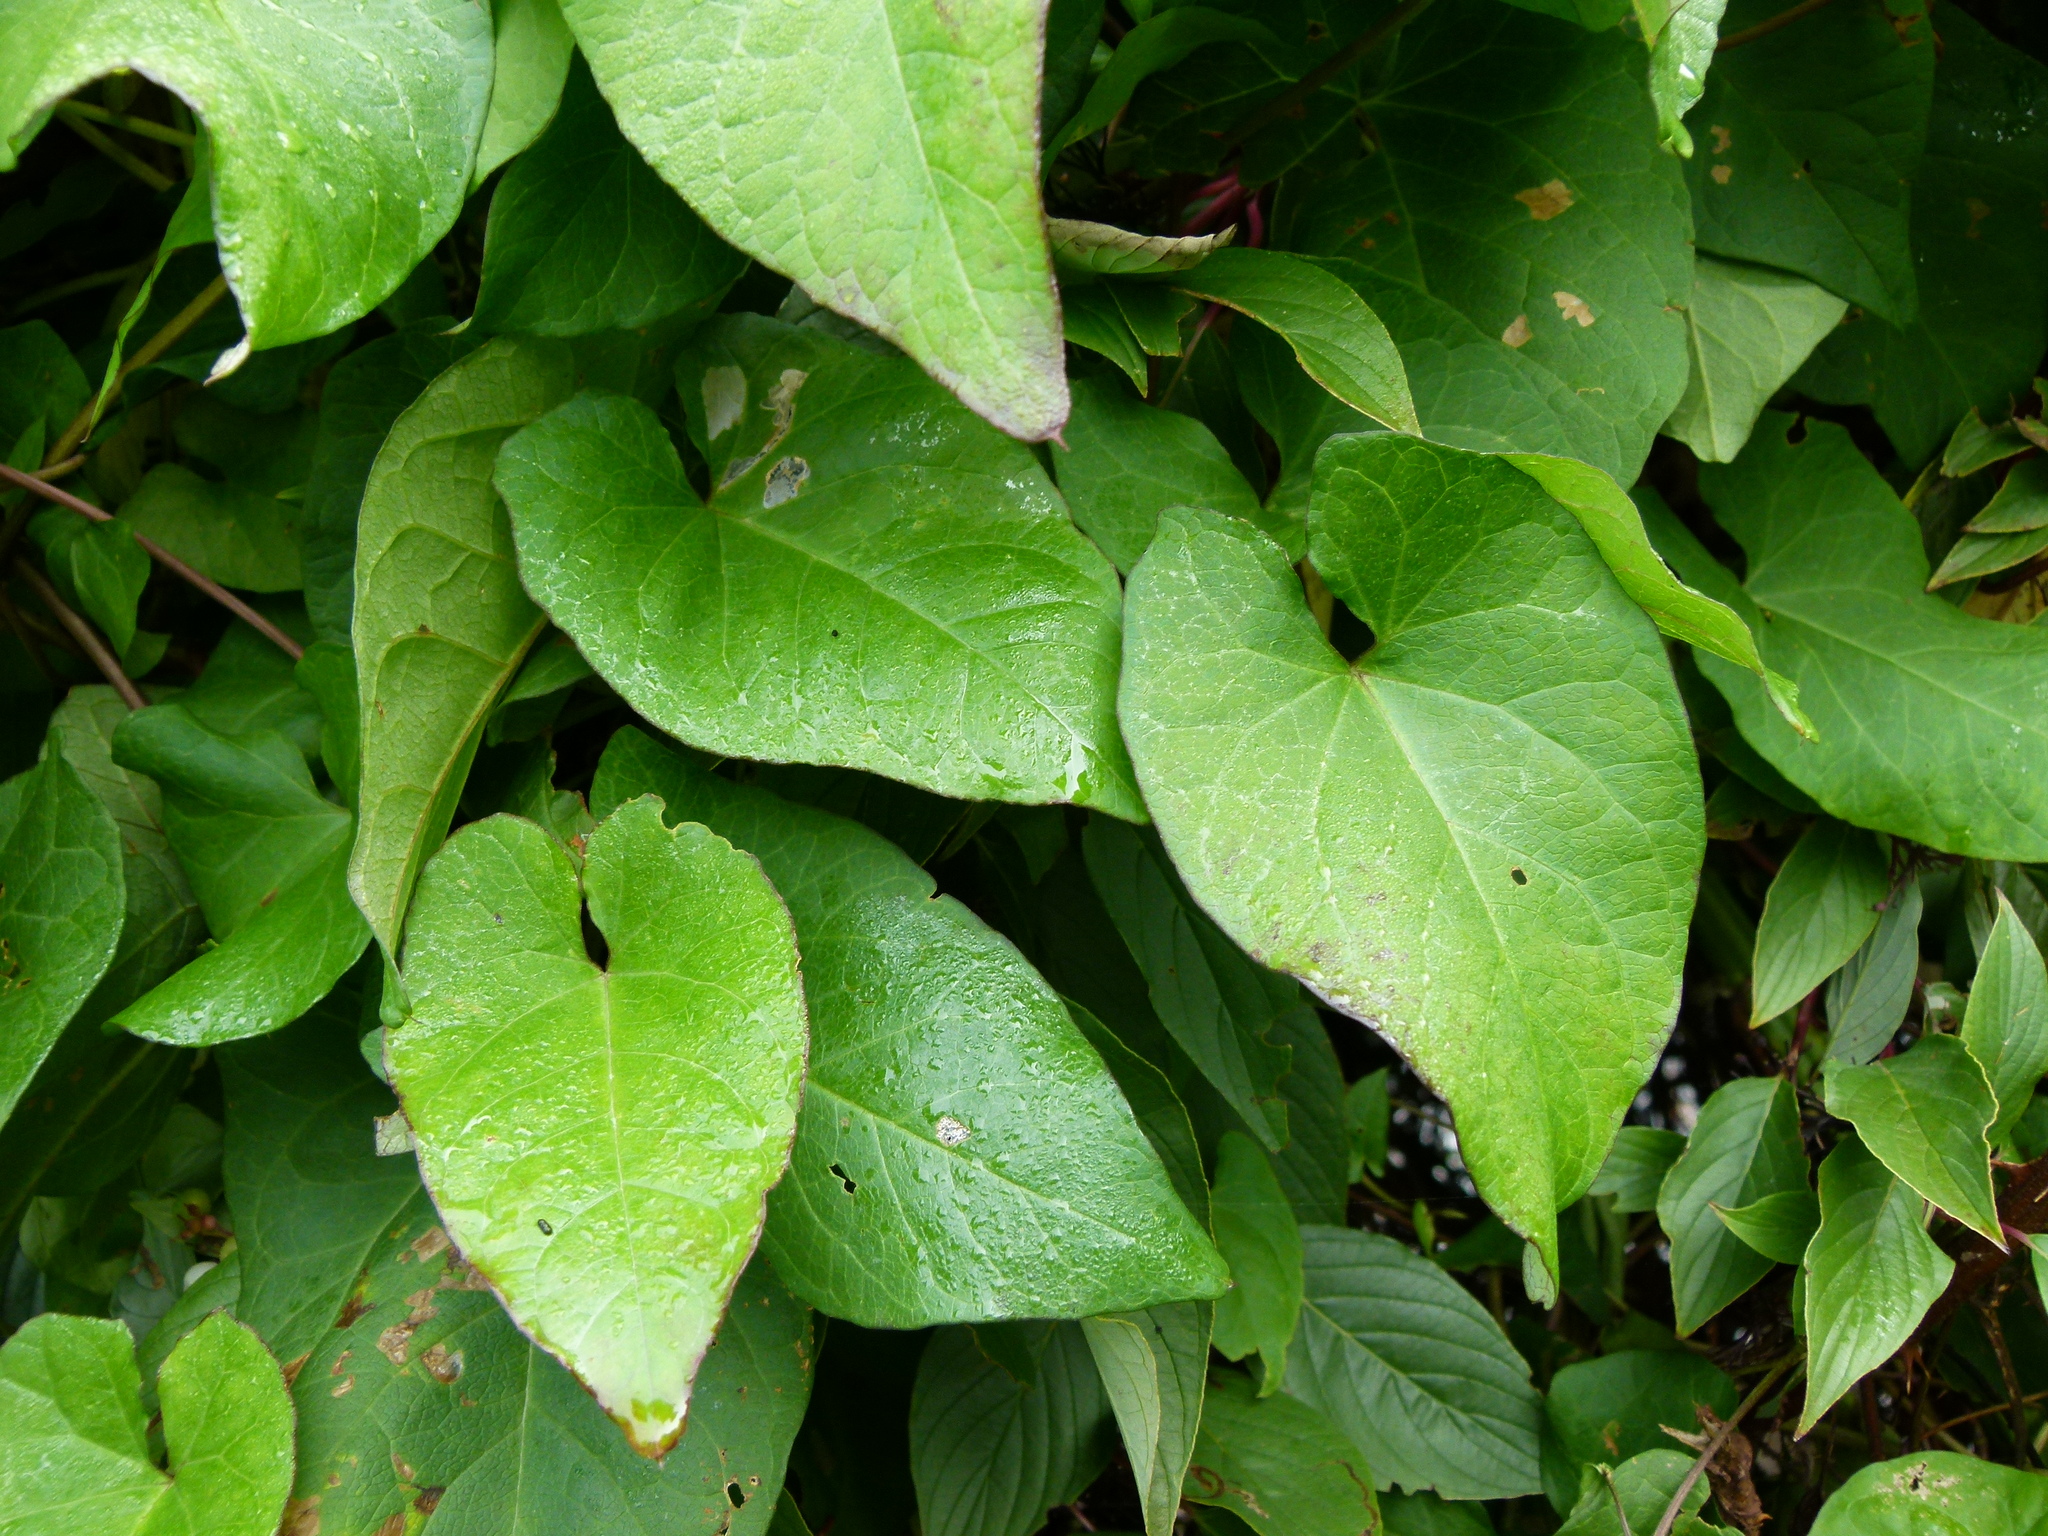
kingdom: Plantae
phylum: Tracheophyta
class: Magnoliopsida
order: Solanales
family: Convolvulaceae
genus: Calystegia
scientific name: Calystegia silvatica
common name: Large bindweed
